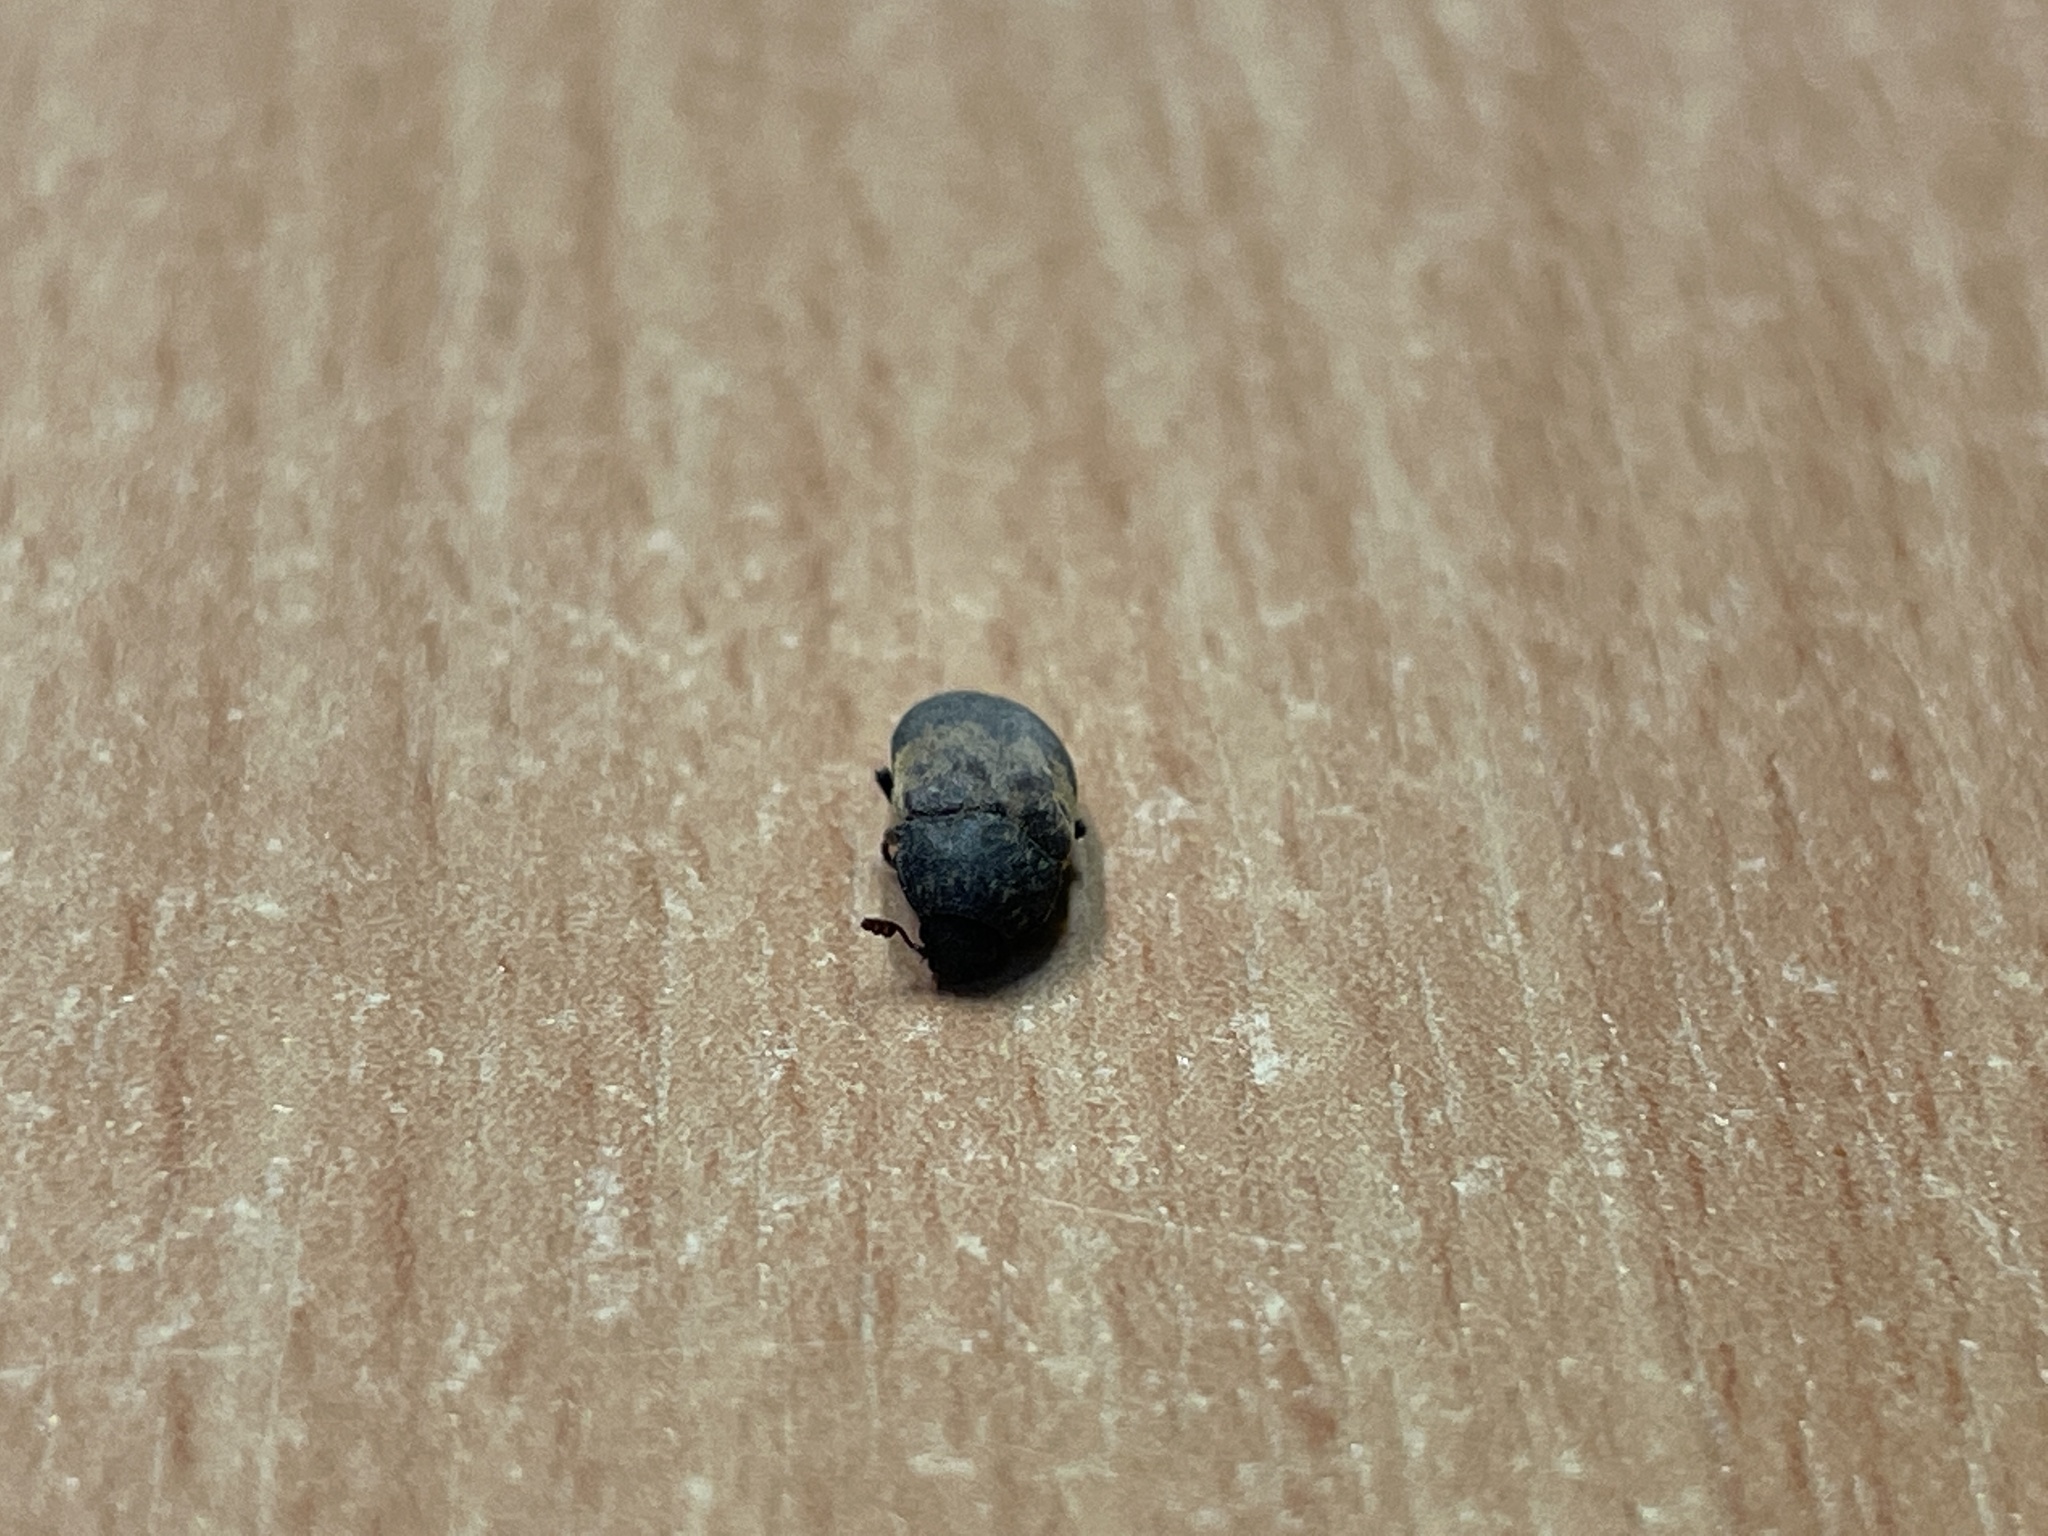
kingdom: Animalia
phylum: Arthropoda
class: Insecta
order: Coleoptera
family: Dermestidae
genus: Dermestes
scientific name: Dermestes lardarius
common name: Larder beetle
